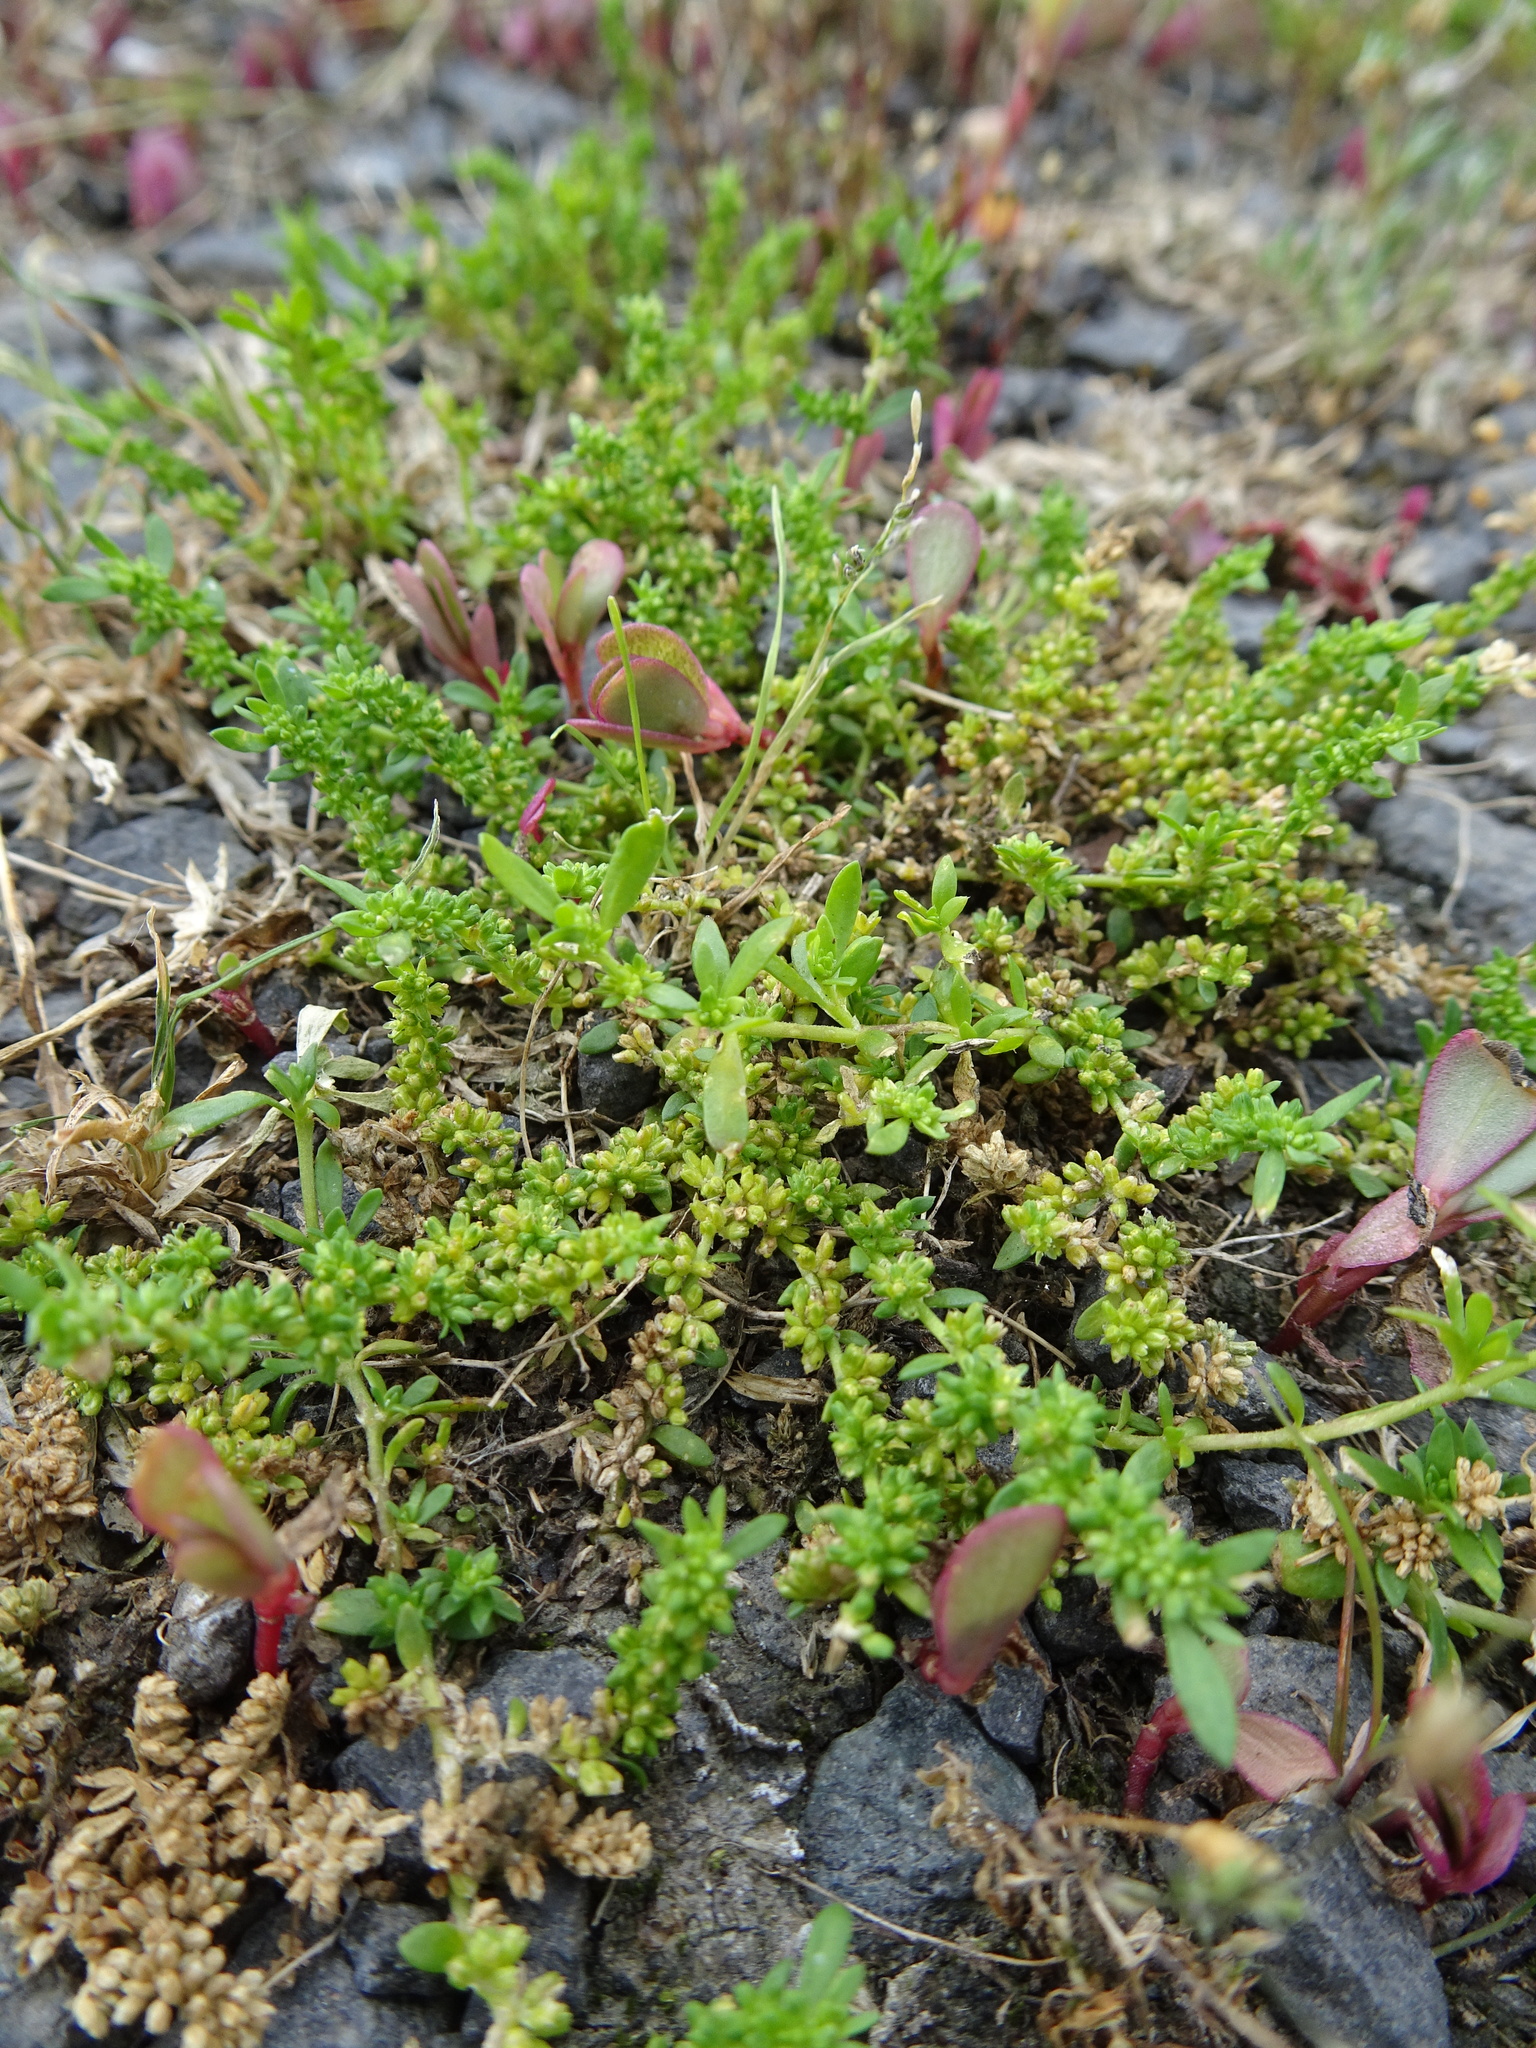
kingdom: Plantae
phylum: Tracheophyta
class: Magnoliopsida
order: Caryophyllales
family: Caryophyllaceae
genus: Herniaria
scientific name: Herniaria glabra
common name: Smooth rupturewort
